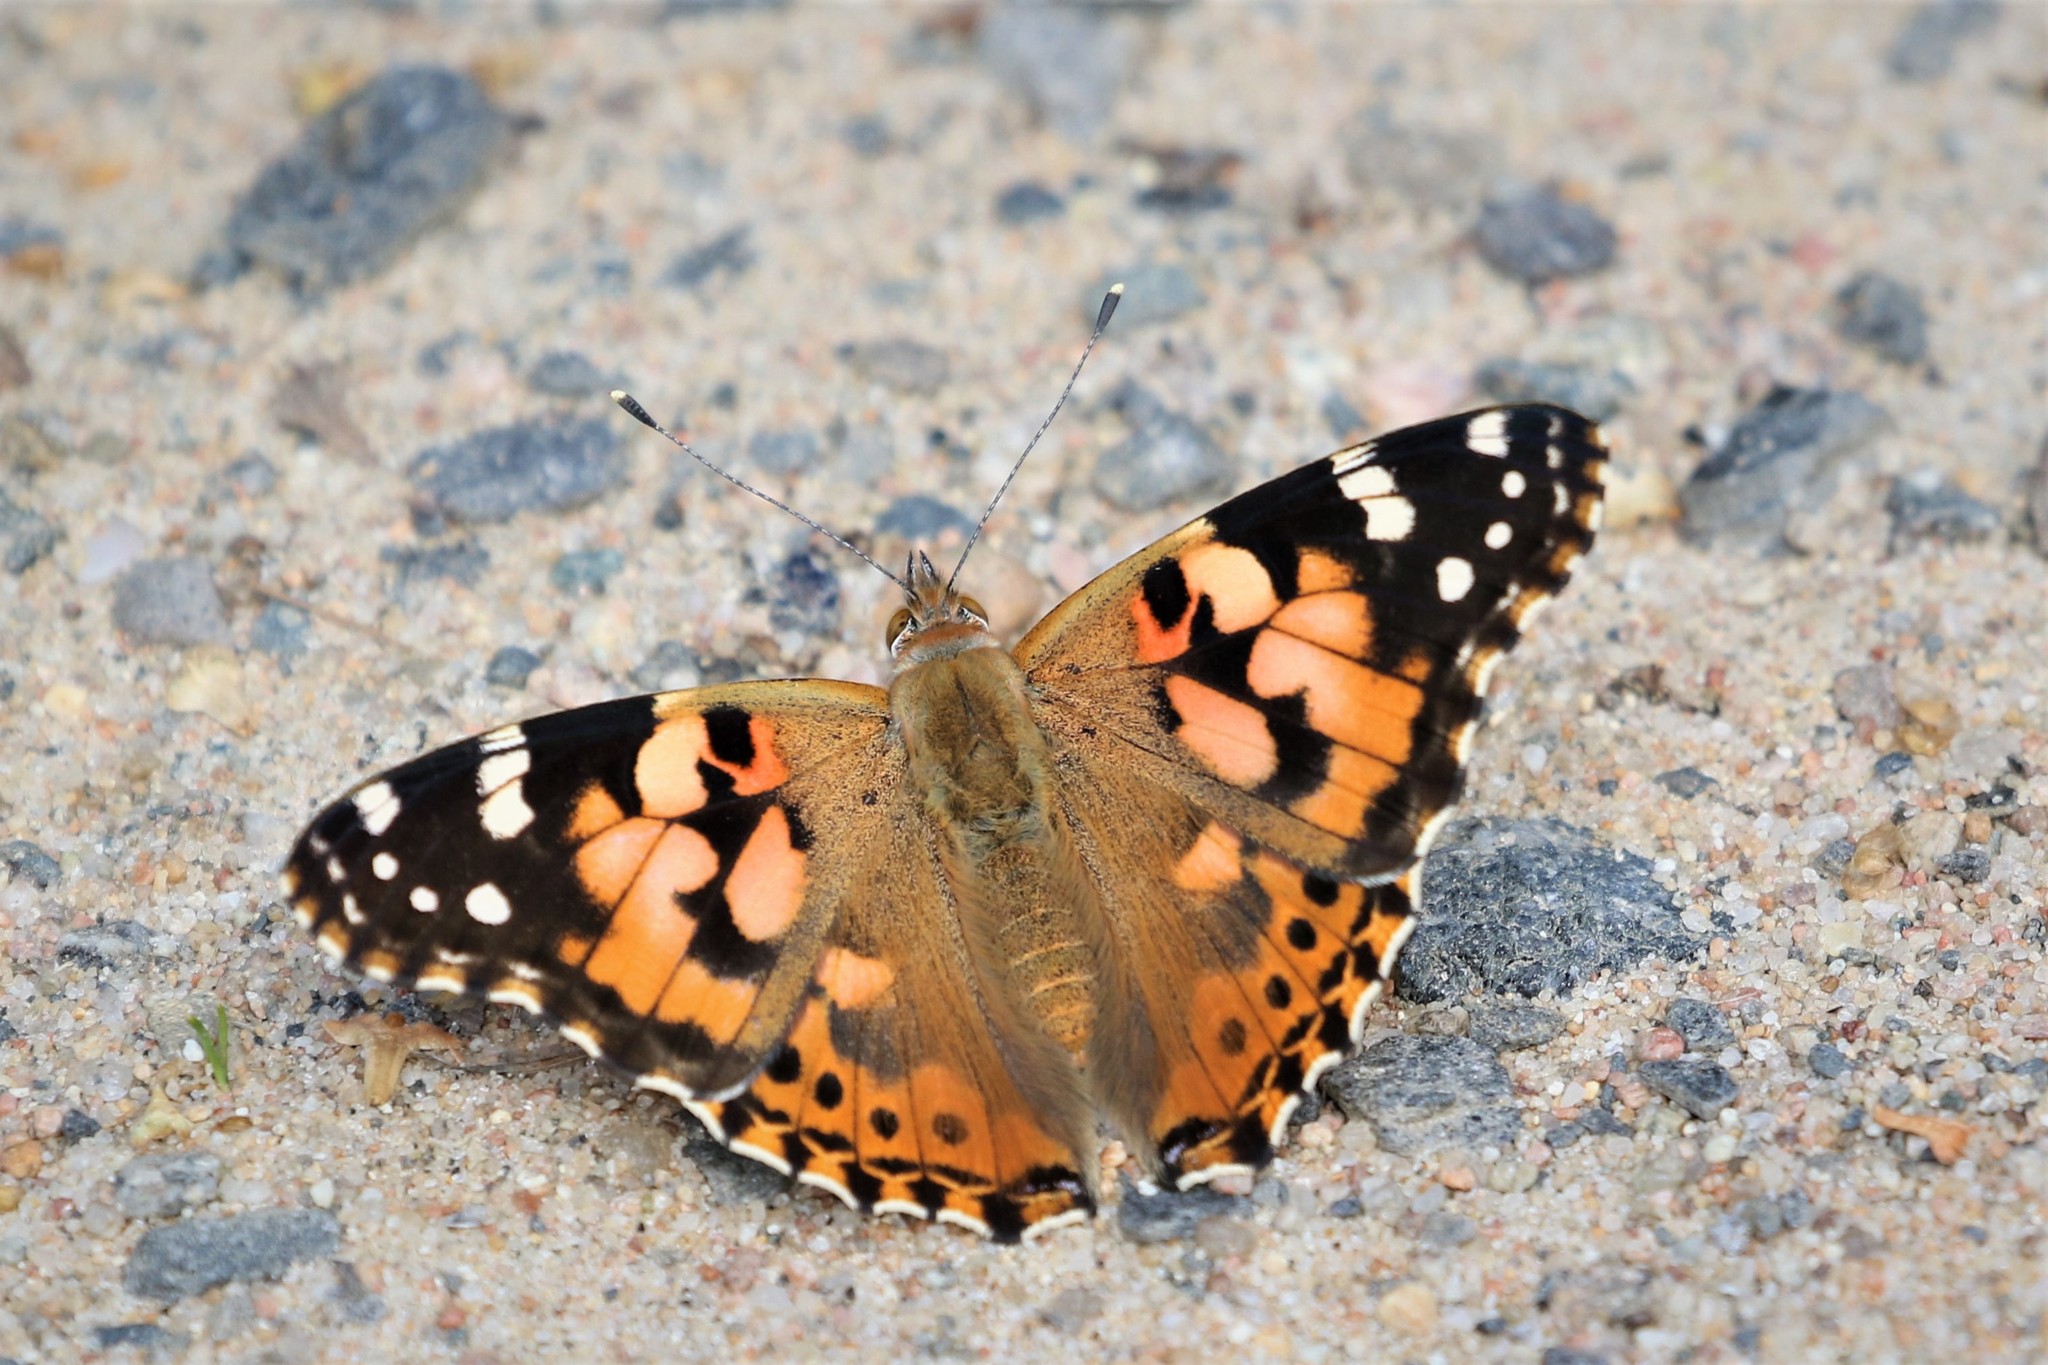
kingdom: Animalia
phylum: Arthropoda
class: Insecta
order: Lepidoptera
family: Nymphalidae
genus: Vanessa
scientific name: Vanessa cardui
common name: Painted lady
